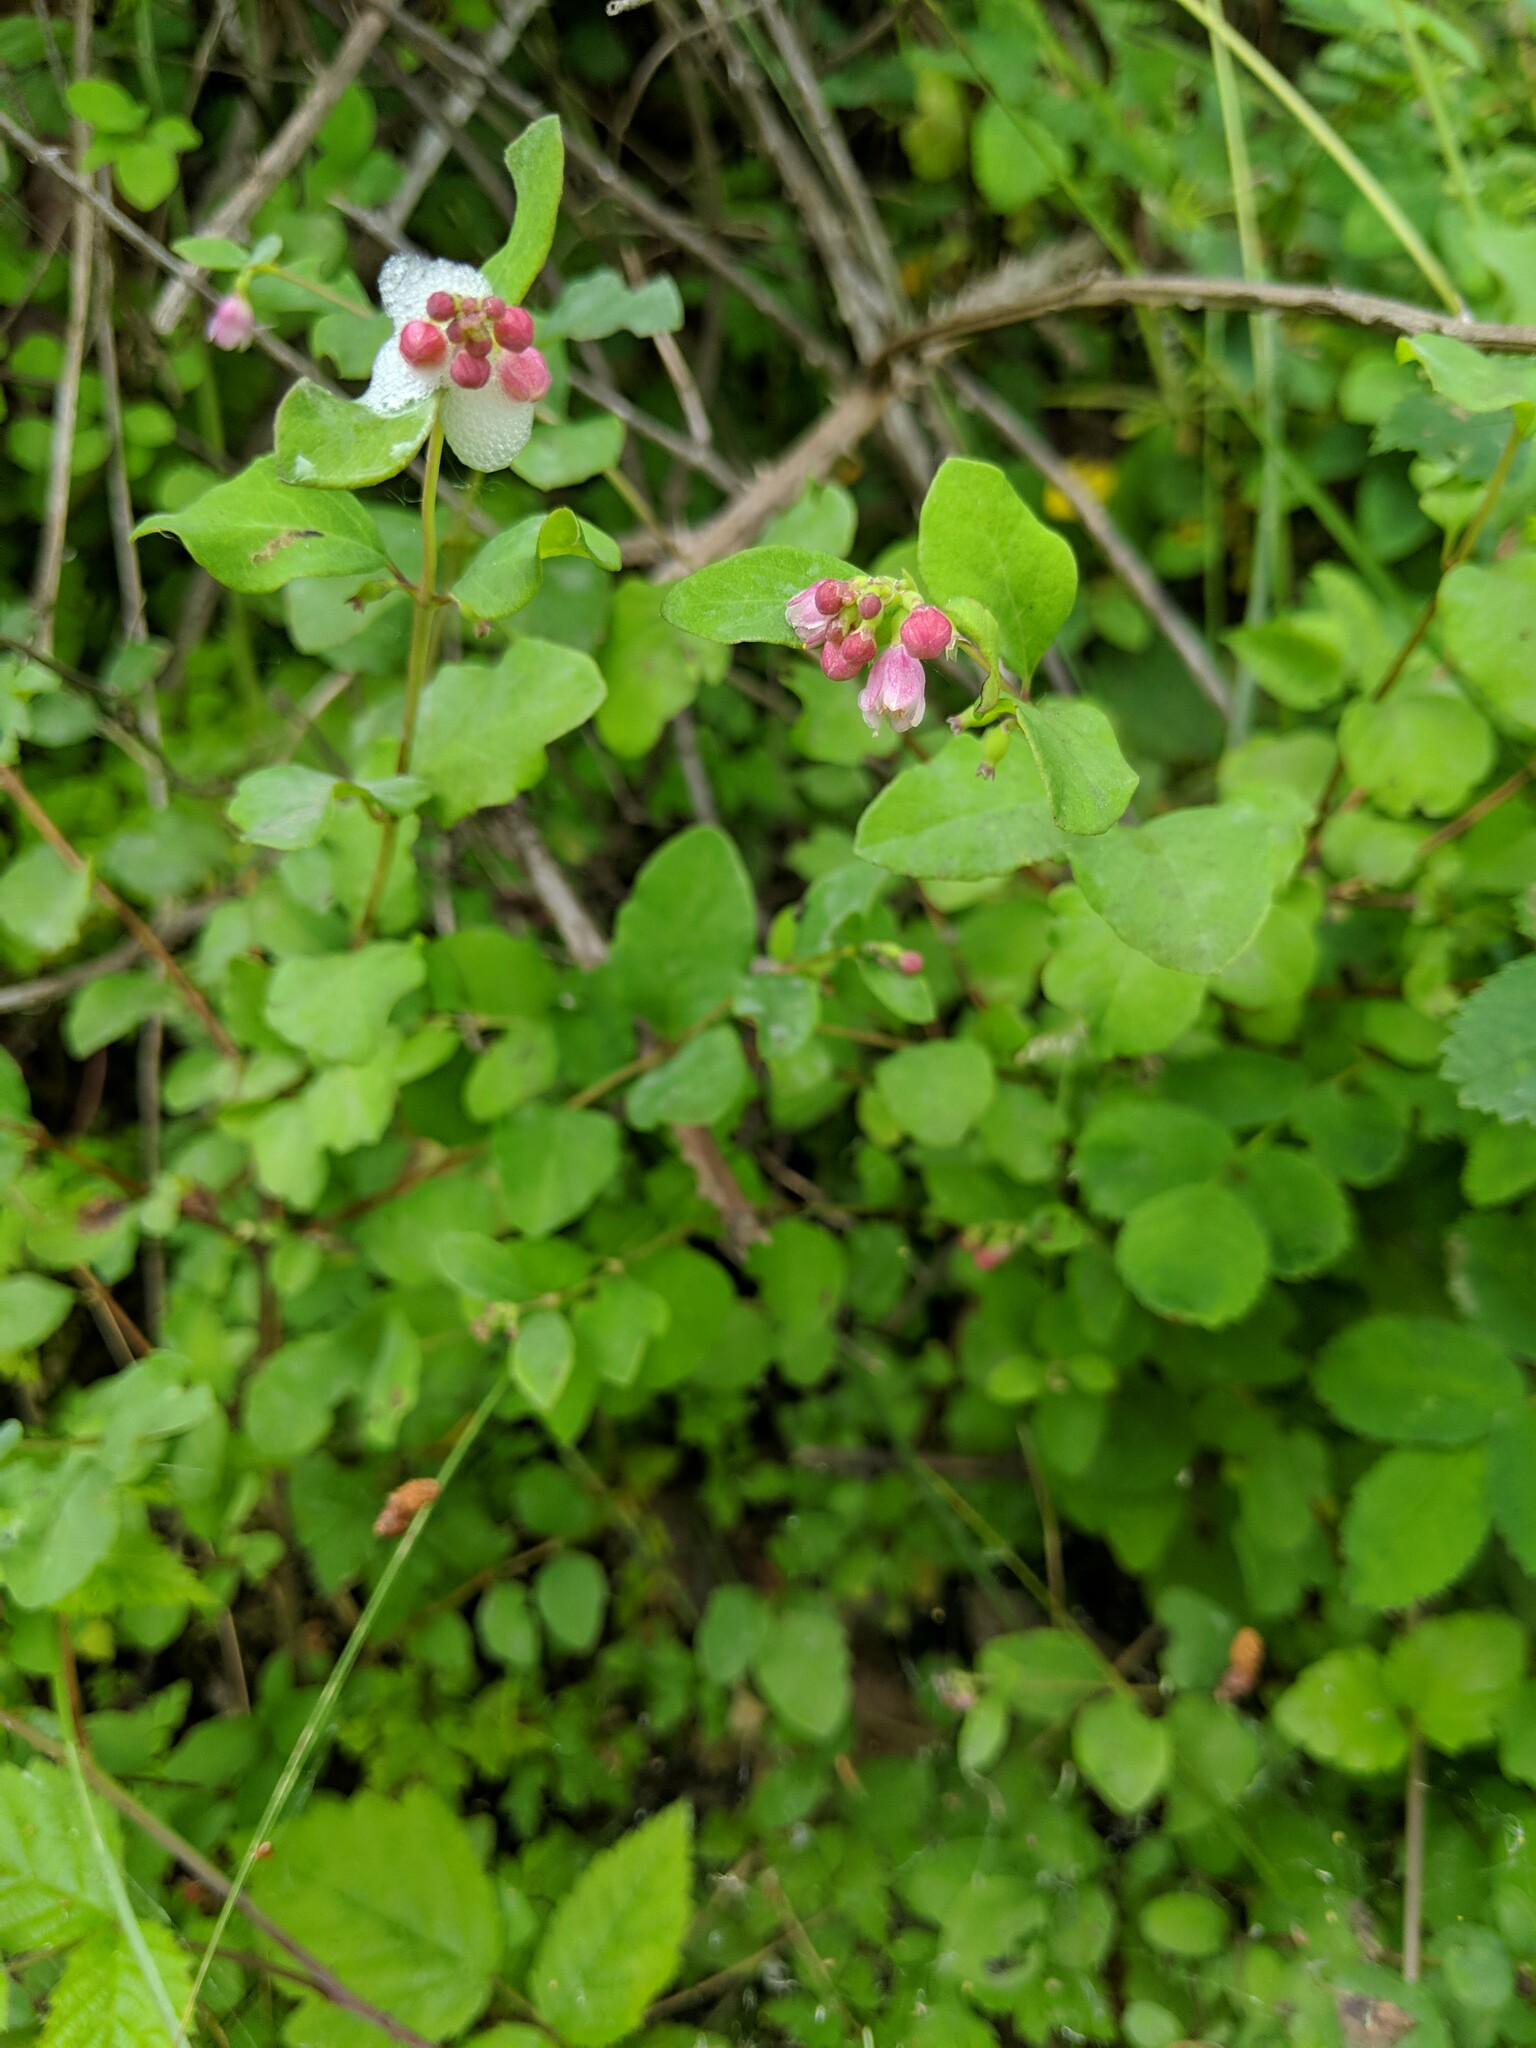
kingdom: Plantae
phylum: Tracheophyta
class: Magnoliopsida
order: Dipsacales
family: Caprifoliaceae
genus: Symphoricarpos
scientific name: Symphoricarpos albus
